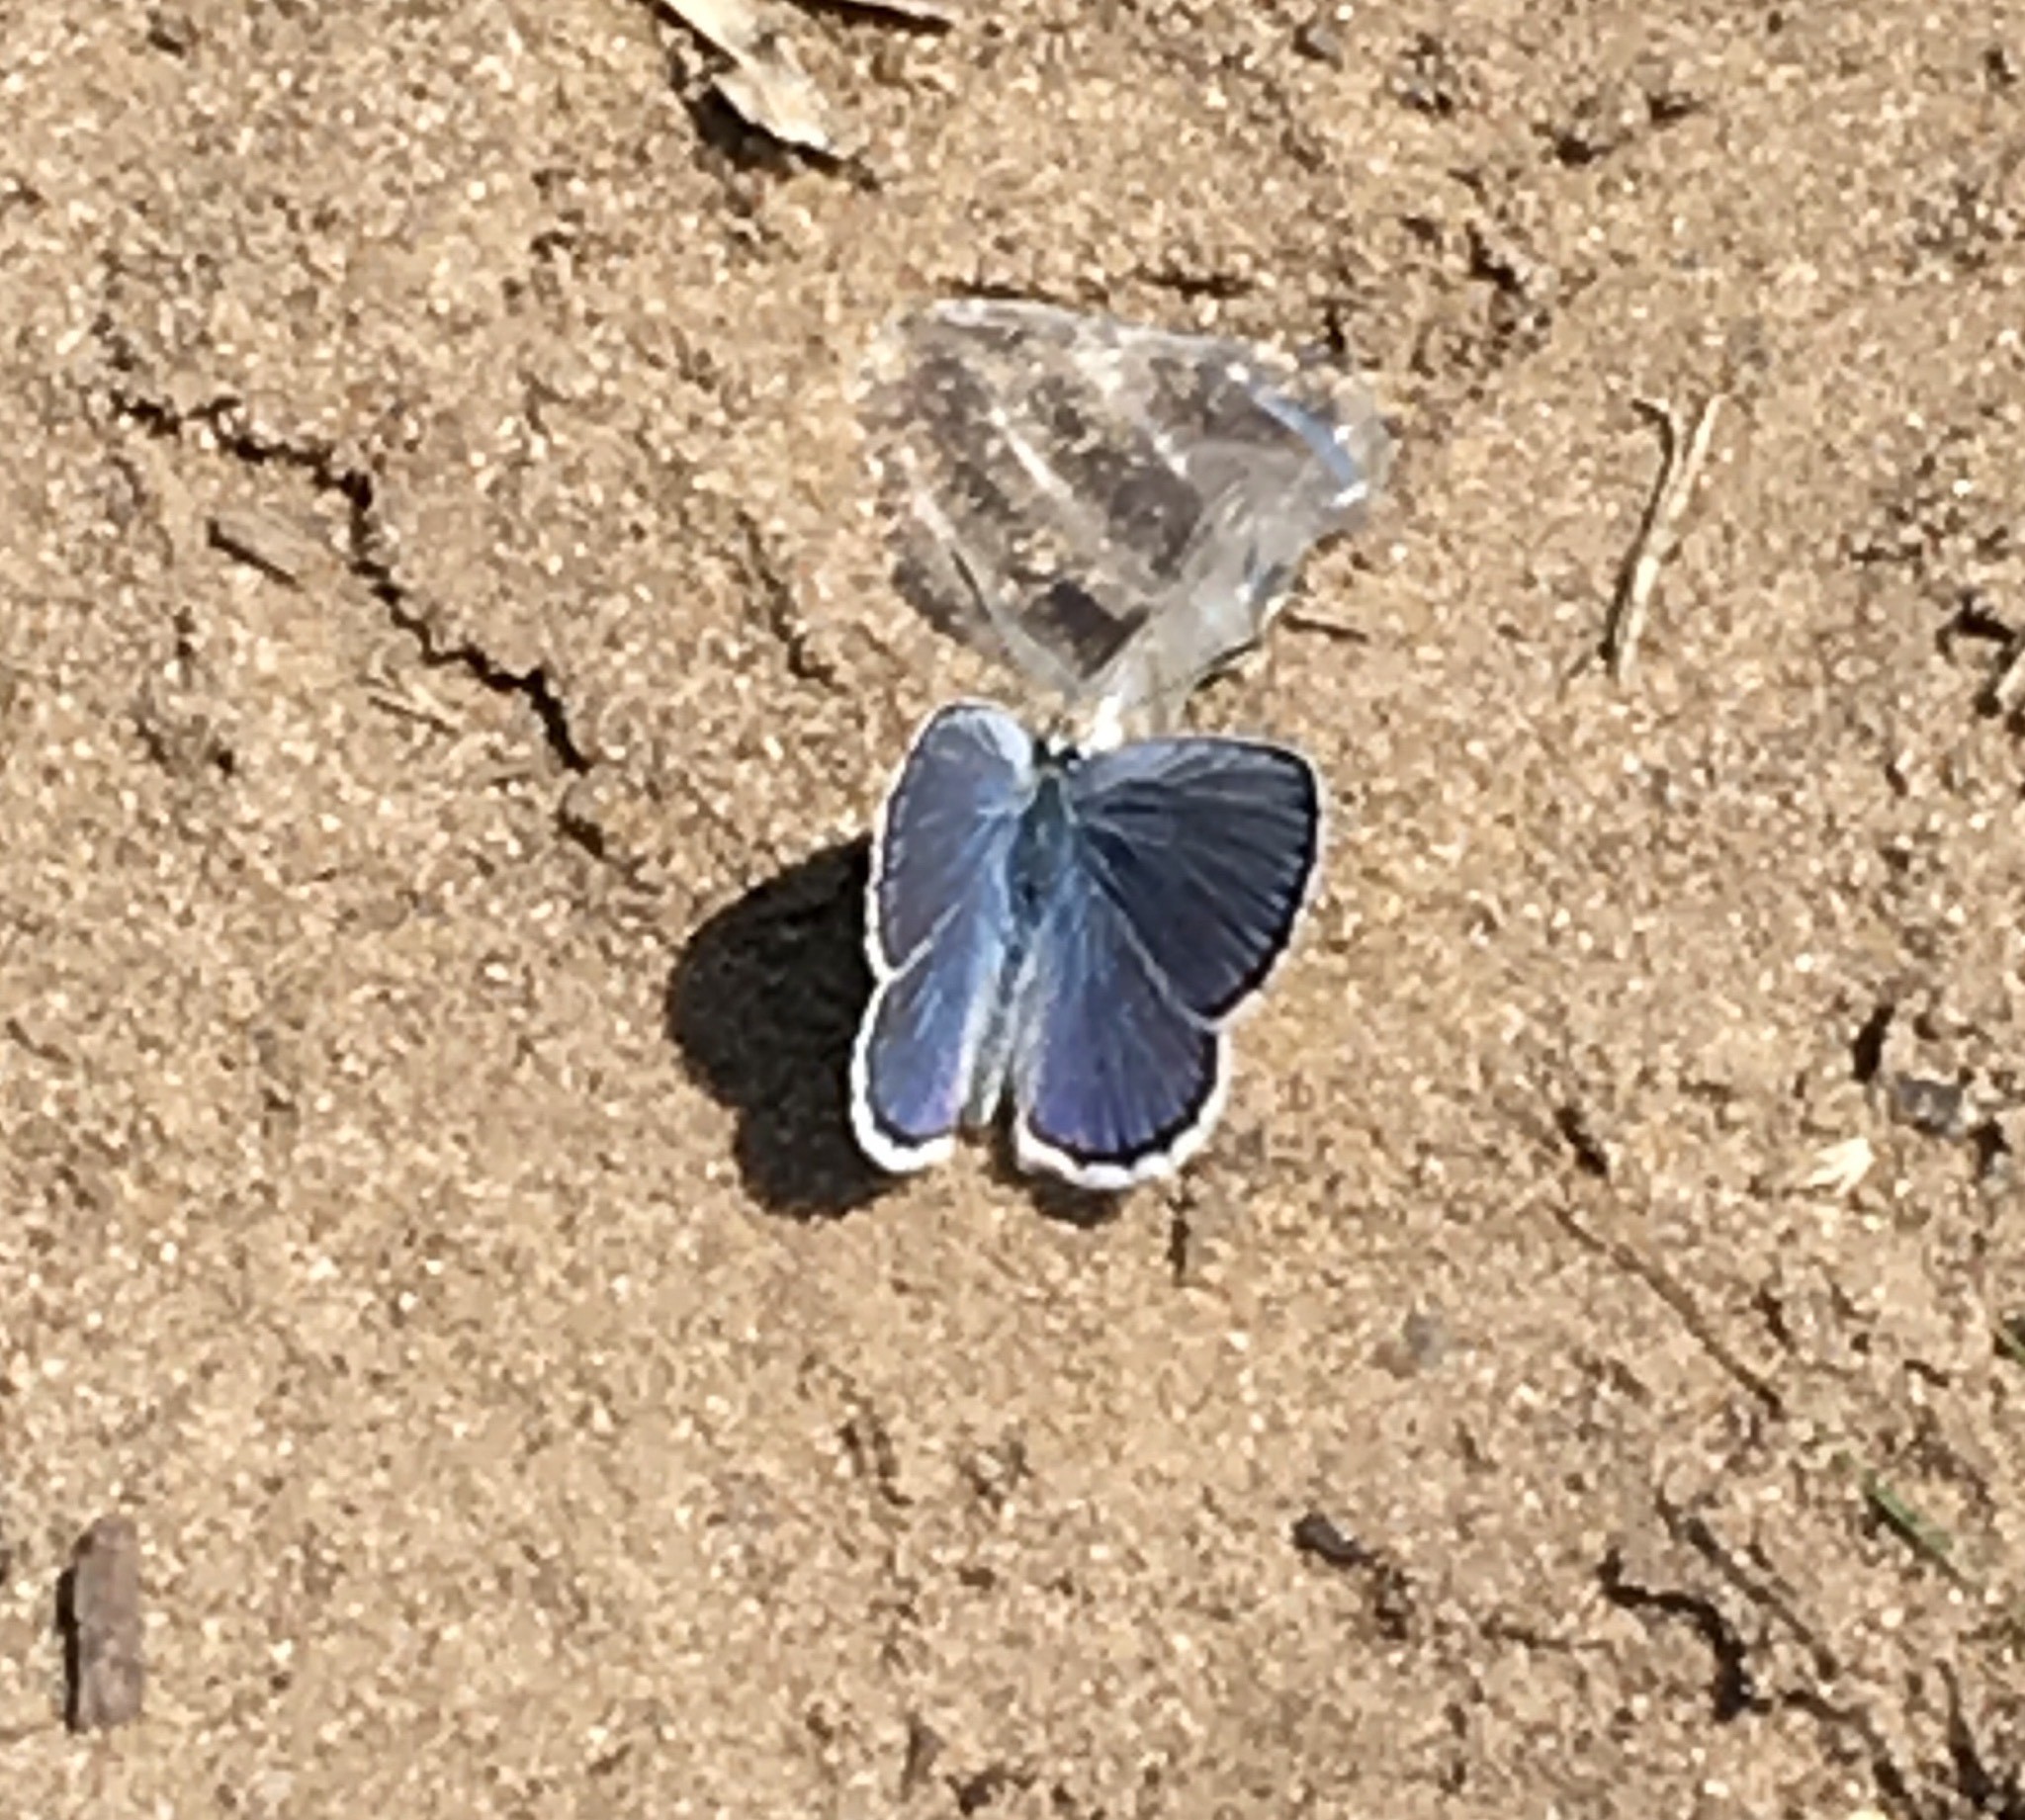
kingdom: Animalia
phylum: Arthropoda
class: Insecta
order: Lepidoptera
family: Lycaenidae
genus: Plebejus
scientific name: Plebejus samuelis
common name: Karner blue
